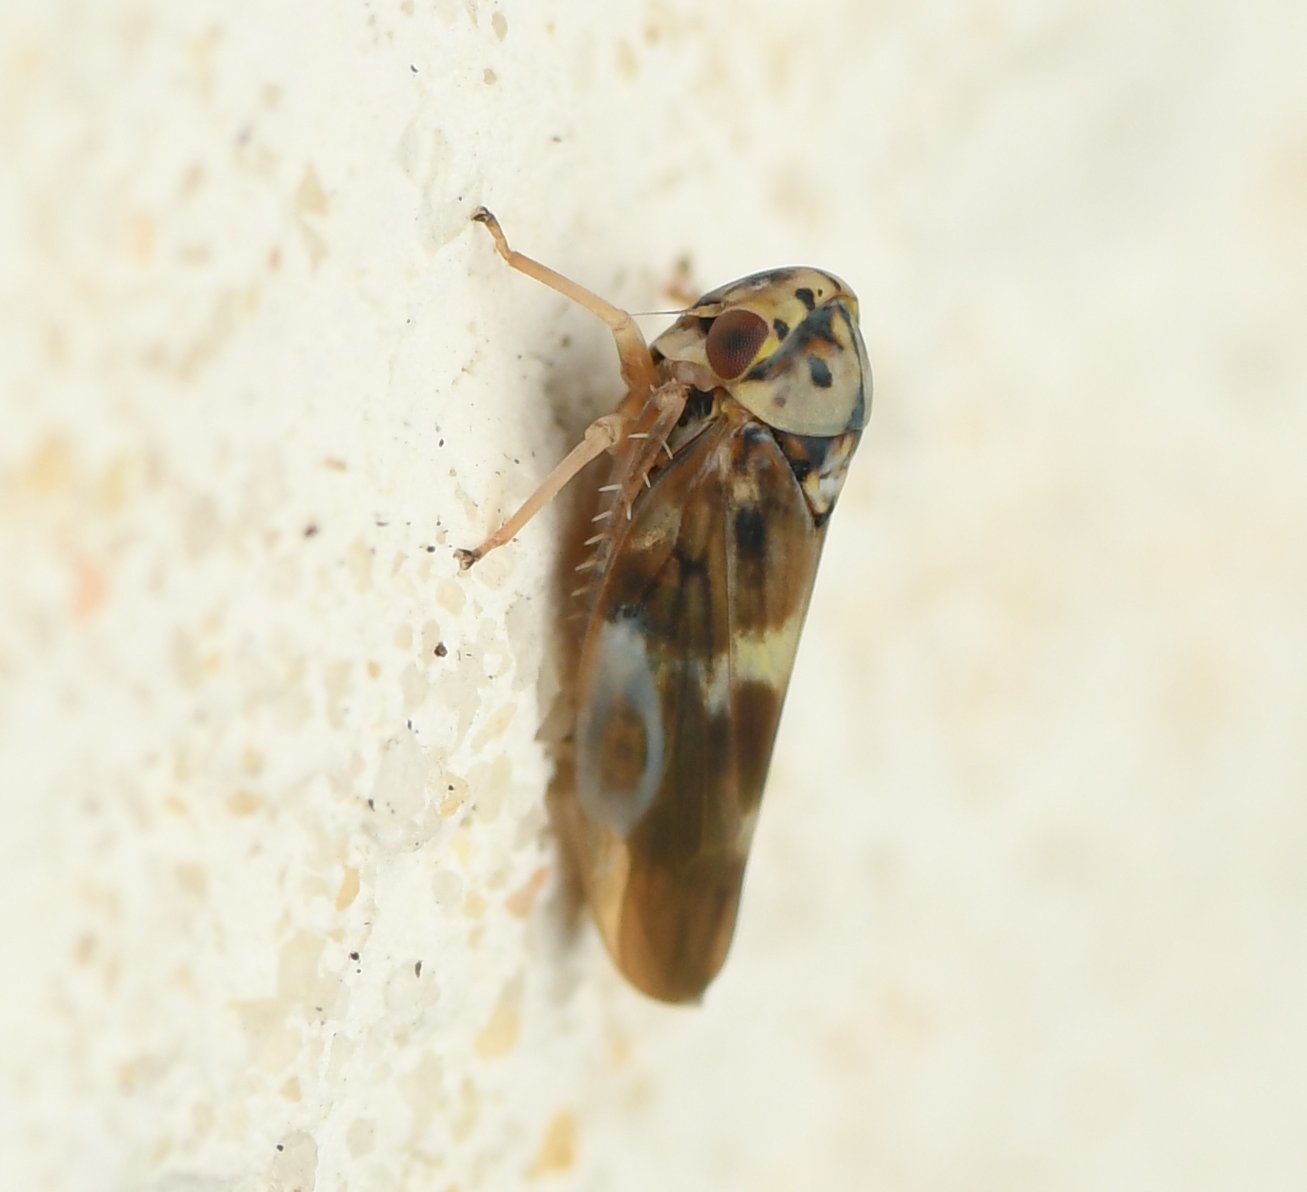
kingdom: Animalia
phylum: Arthropoda
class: Insecta
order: Hemiptera
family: Cicadellidae
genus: Agalliopsis
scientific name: Agalliopsis cervina
